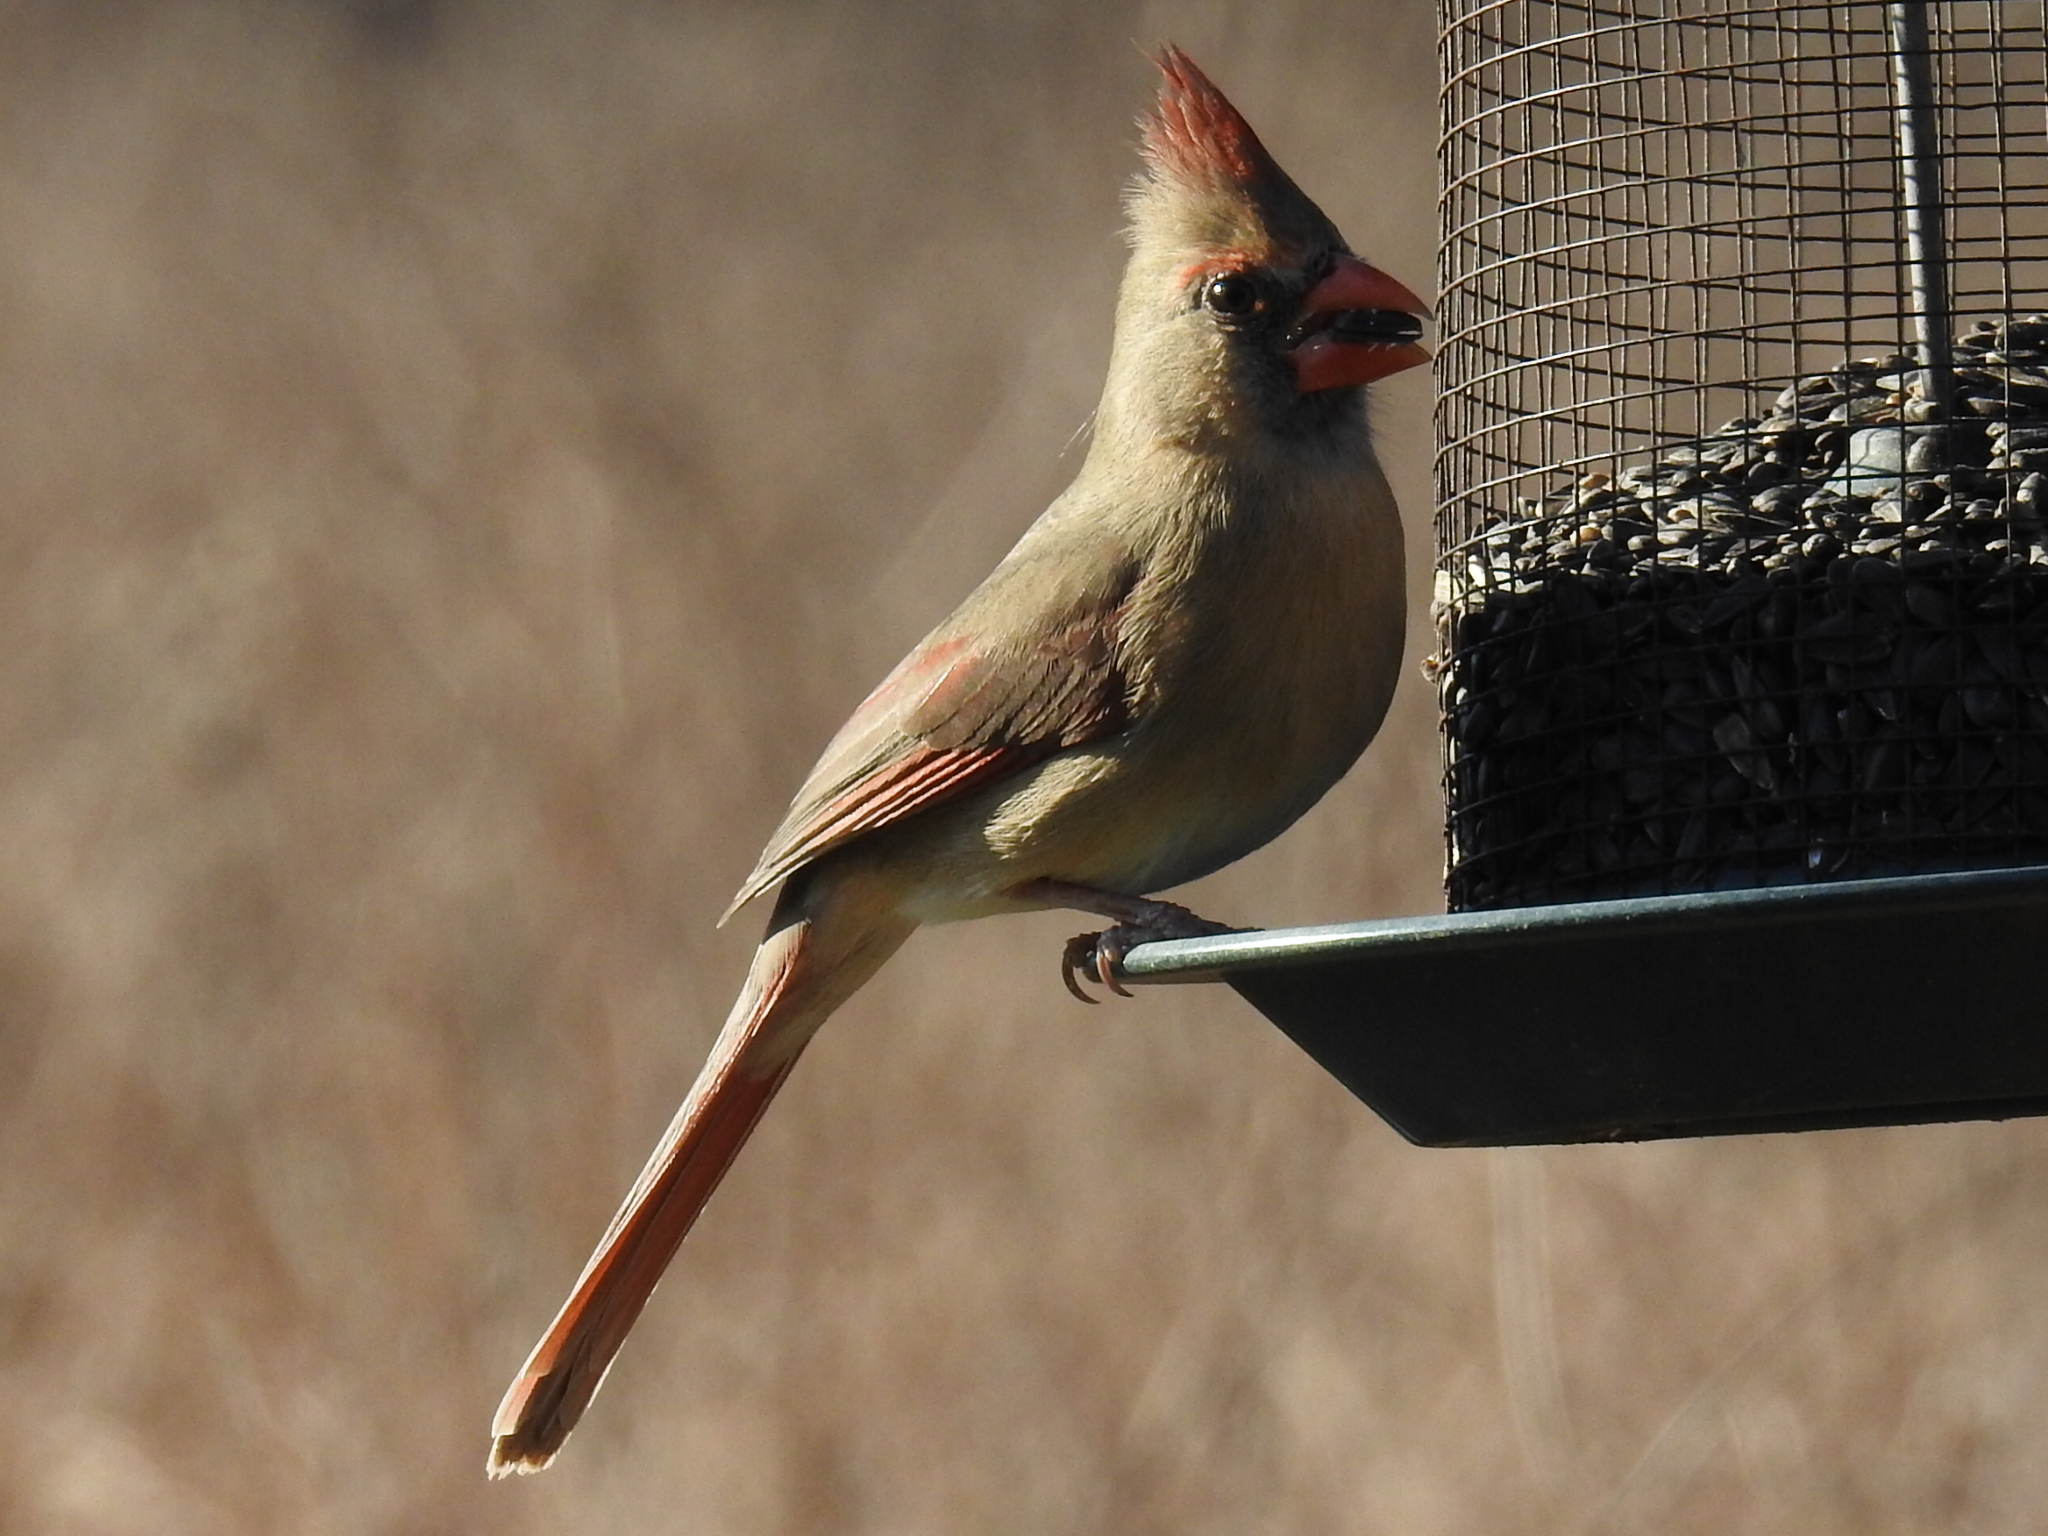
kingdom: Animalia
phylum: Chordata
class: Aves
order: Passeriformes
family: Cardinalidae
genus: Cardinalis
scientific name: Cardinalis cardinalis
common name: Northern cardinal
